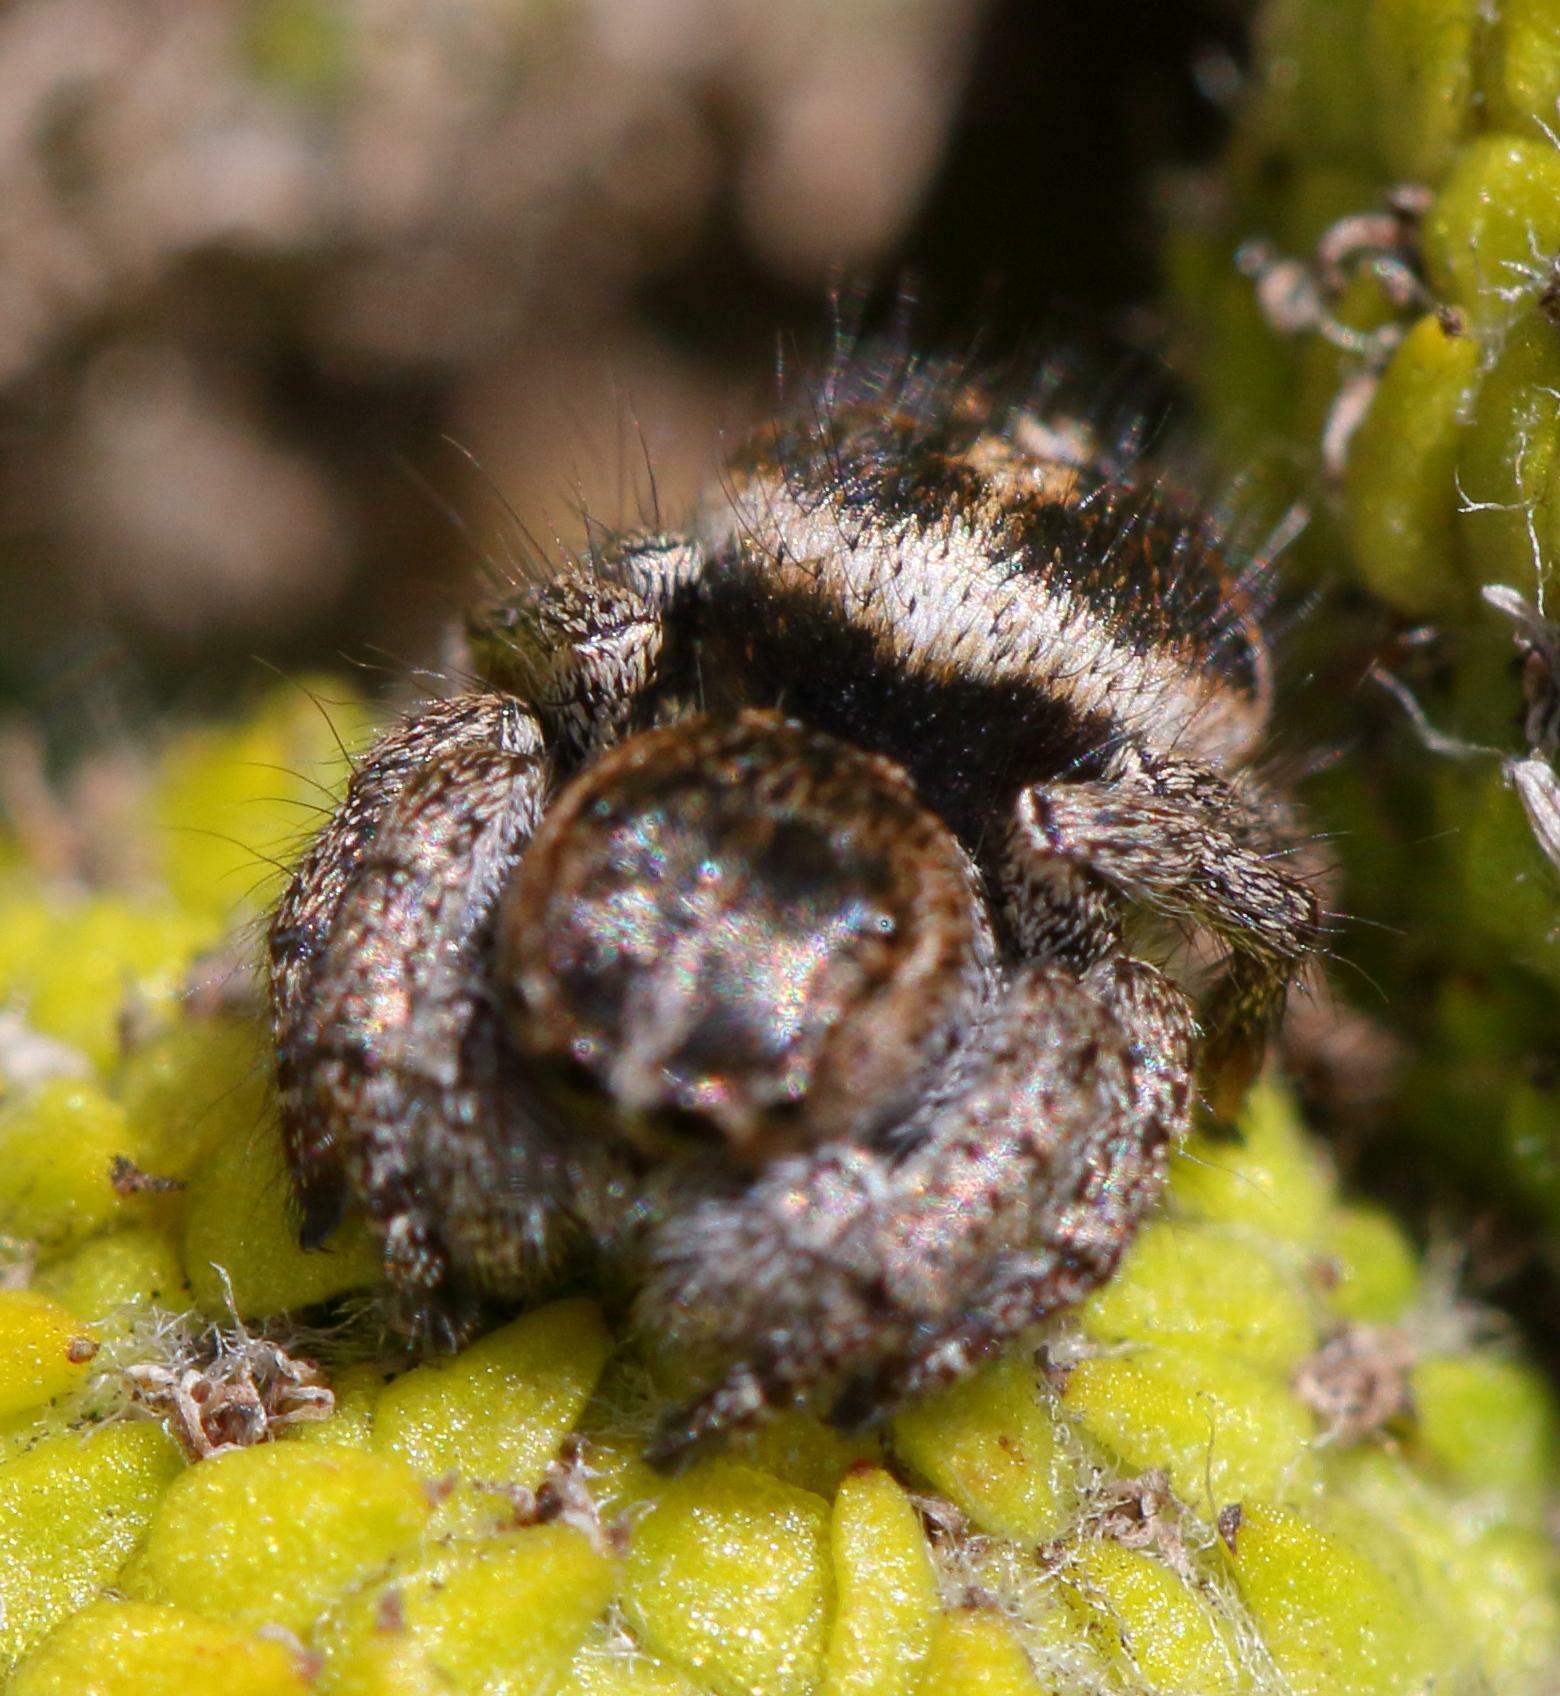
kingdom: Animalia
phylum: Arthropoda
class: Arachnida
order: Araneae
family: Salticidae
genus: Baryphas
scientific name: Baryphas ahenus
